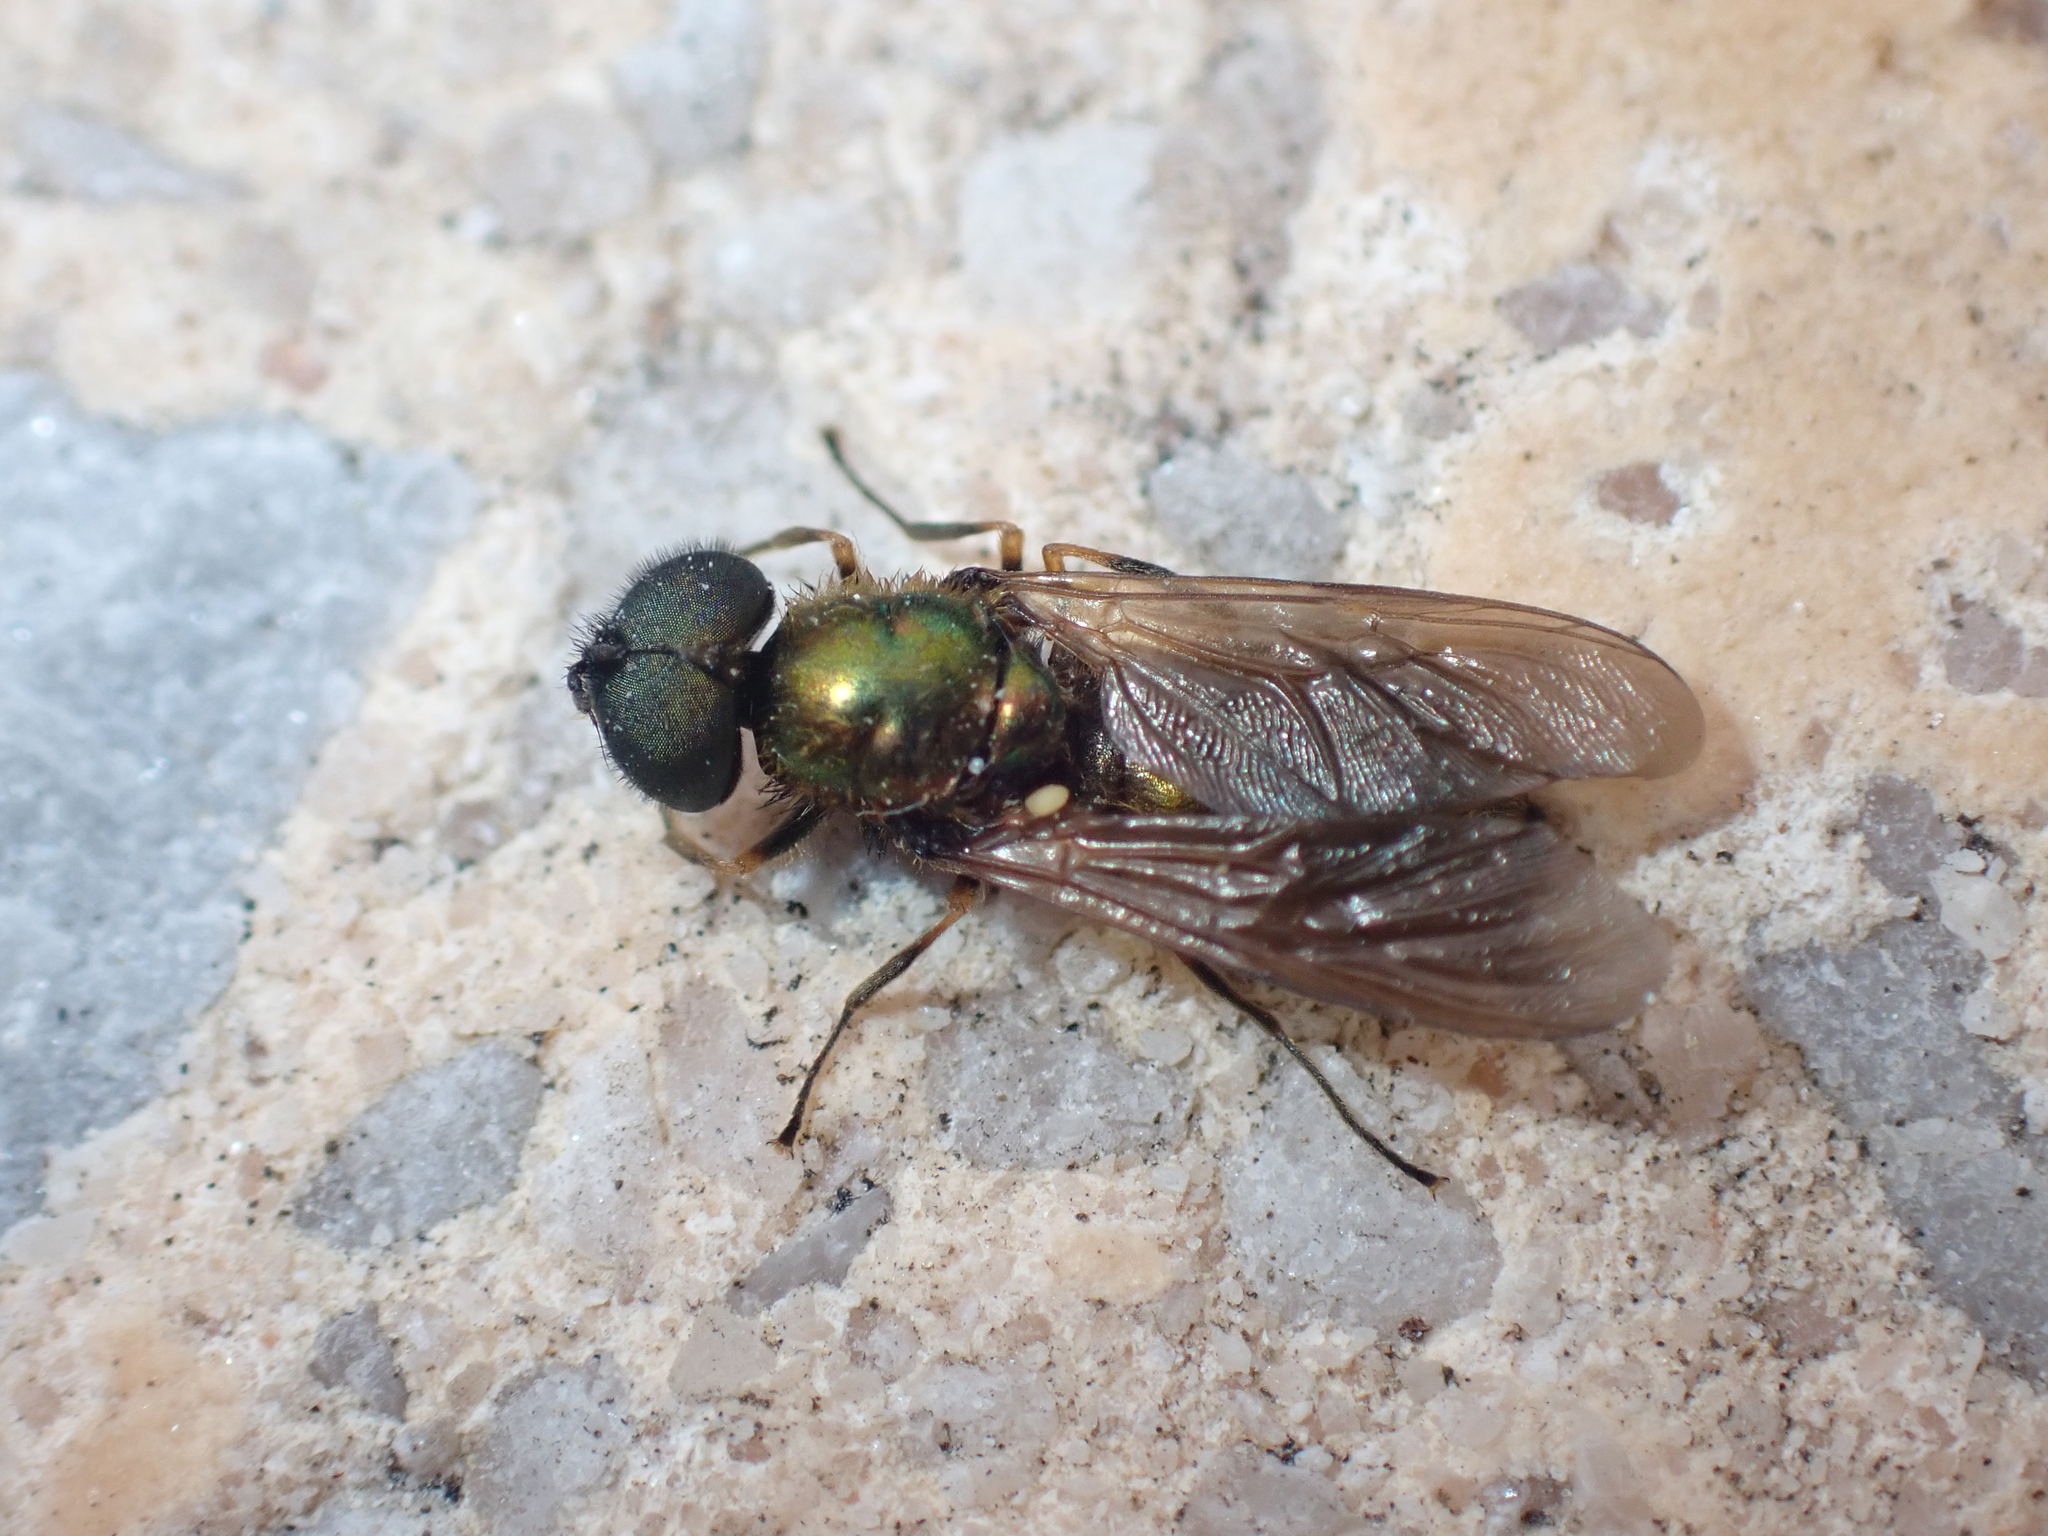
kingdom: Animalia
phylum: Arthropoda
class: Insecta
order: Diptera
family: Stratiomyidae
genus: Chloromyia
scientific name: Chloromyia formosa
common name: Soldier fly
